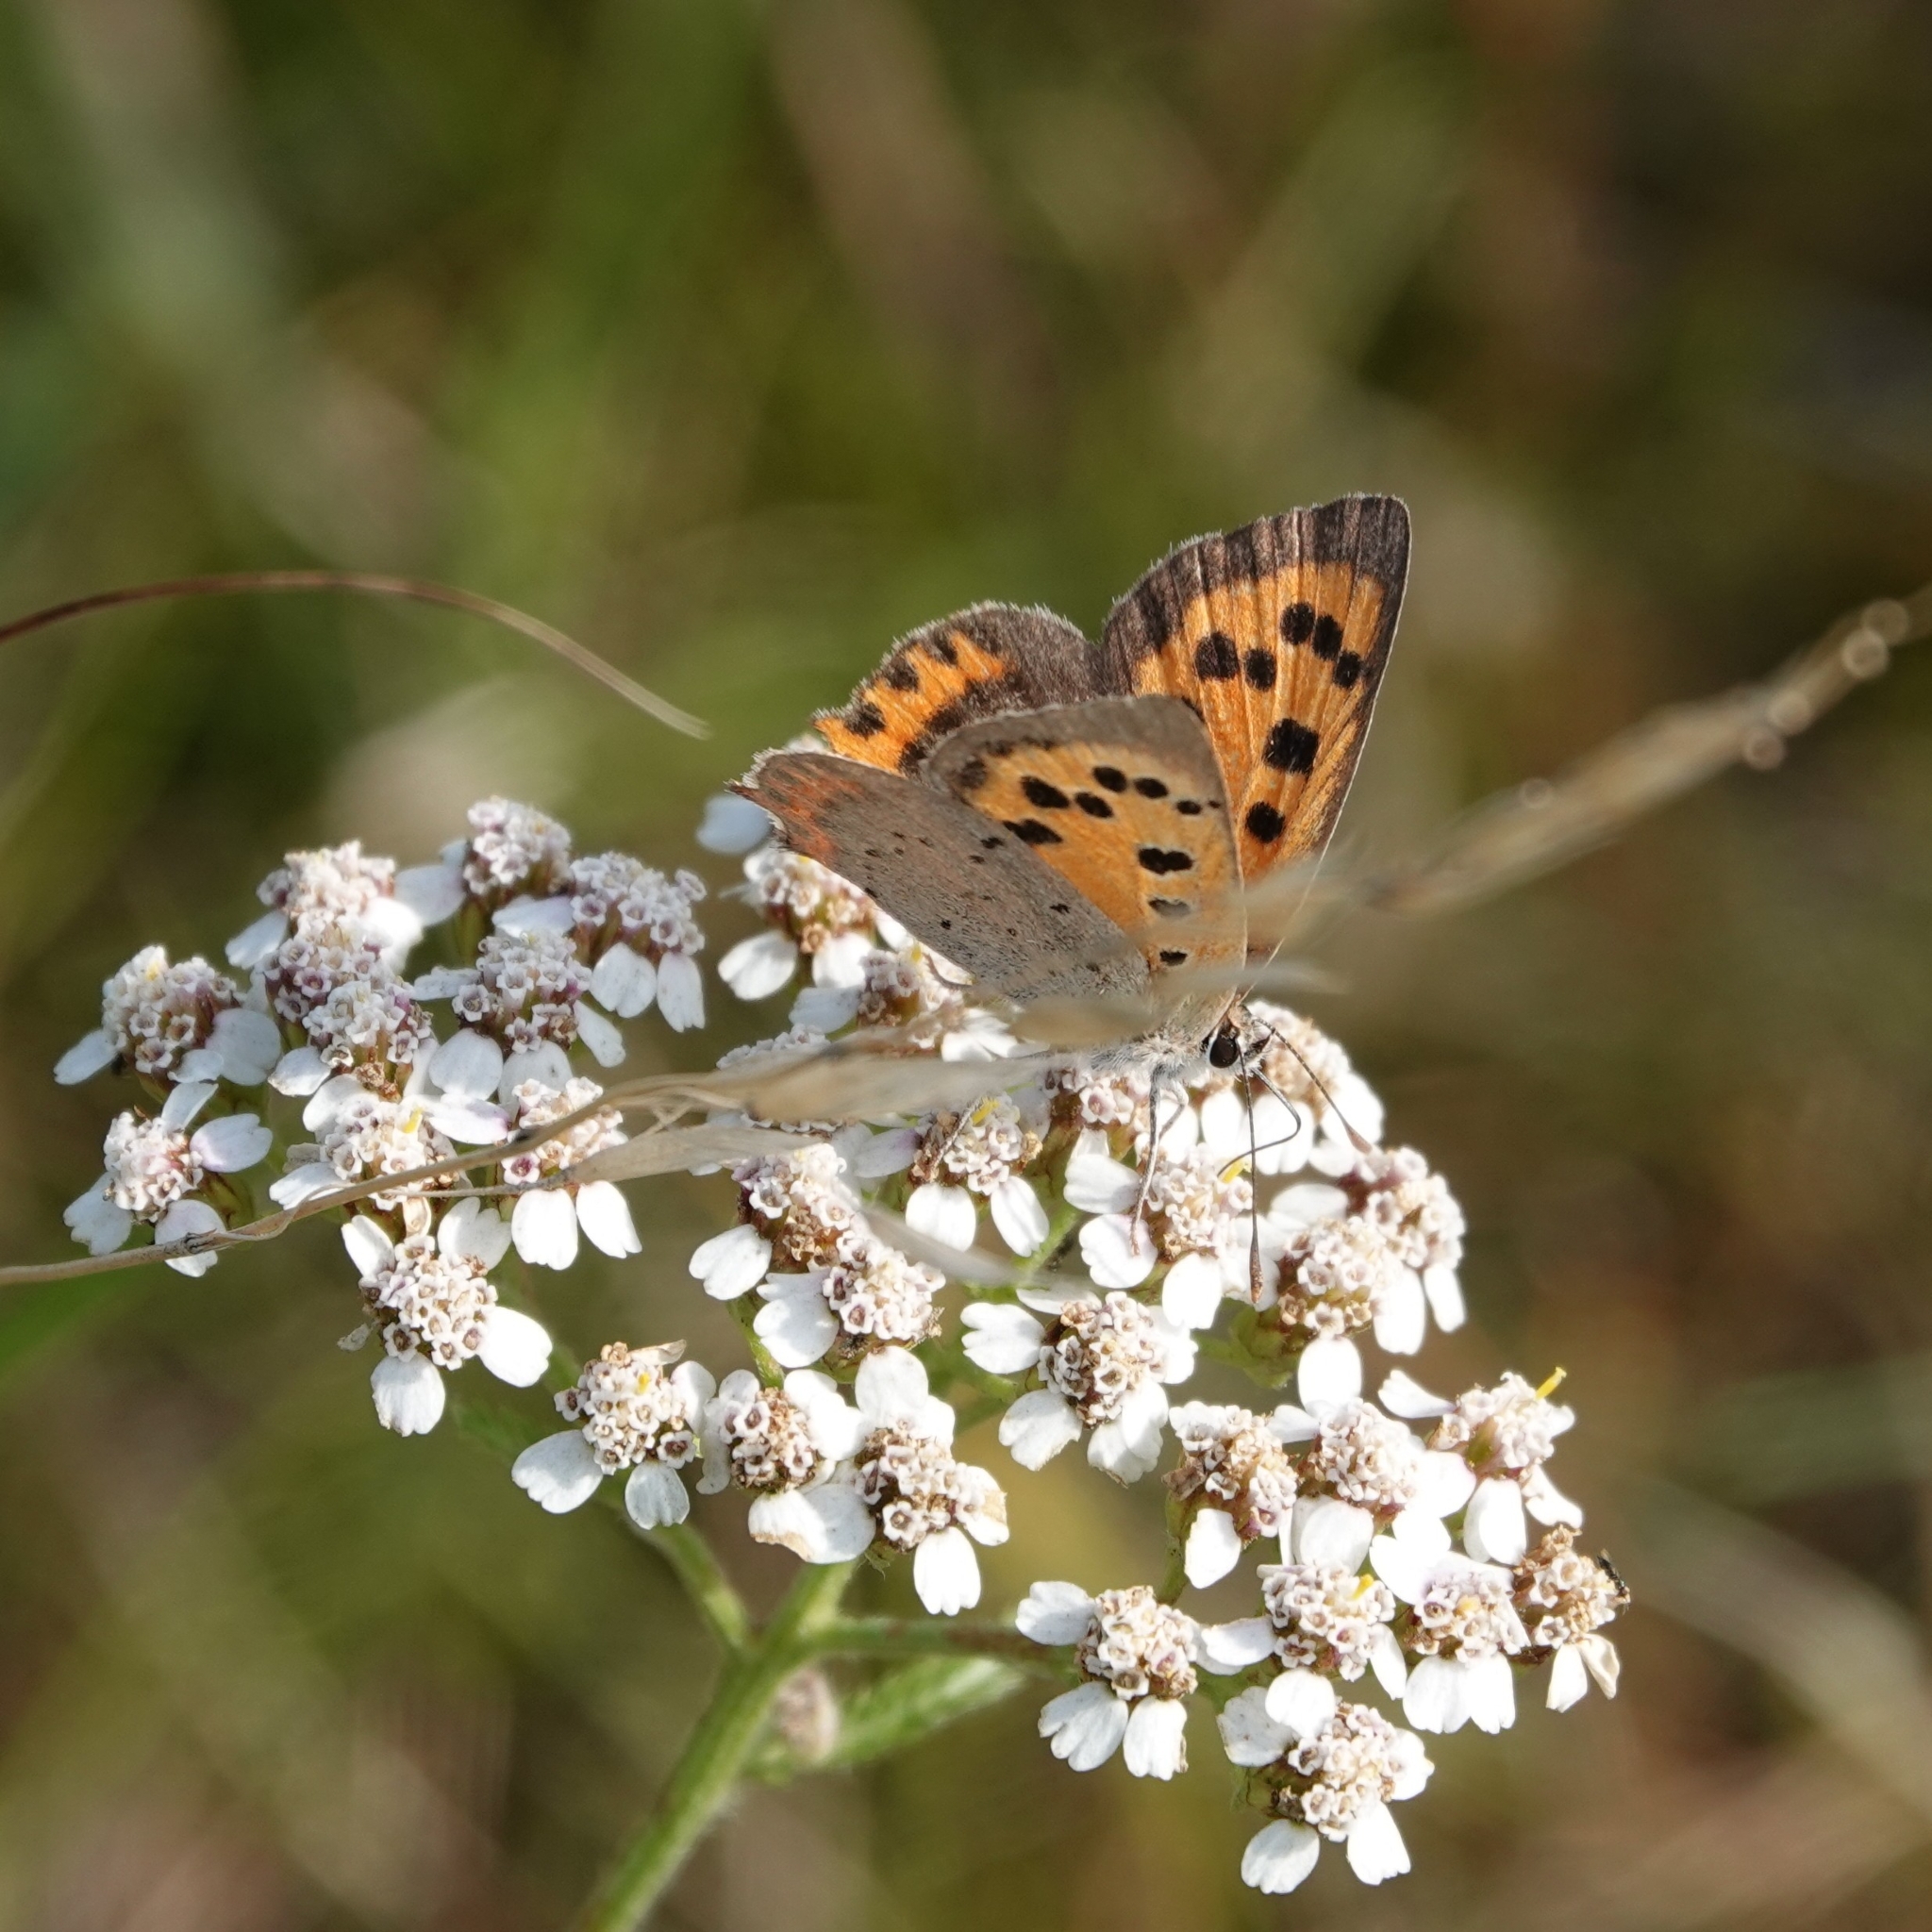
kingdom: Animalia
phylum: Arthropoda
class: Insecta
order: Lepidoptera
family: Lycaenidae
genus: Lycaena
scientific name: Lycaena phlaeas
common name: Small copper
